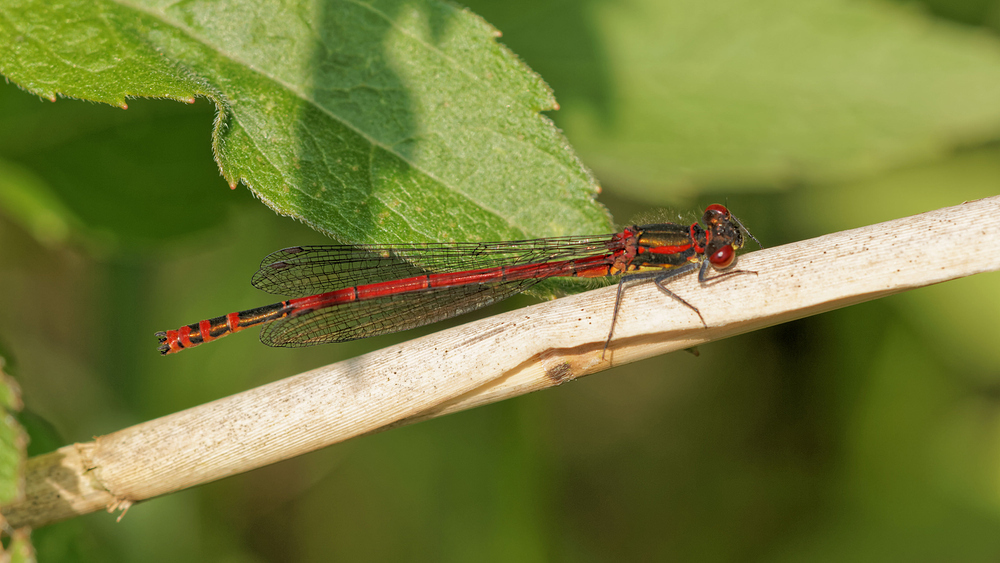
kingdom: Animalia
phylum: Arthropoda
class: Insecta
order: Odonata
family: Coenagrionidae
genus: Pyrrhosoma
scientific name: Pyrrhosoma nymphula
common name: Large red damsel
